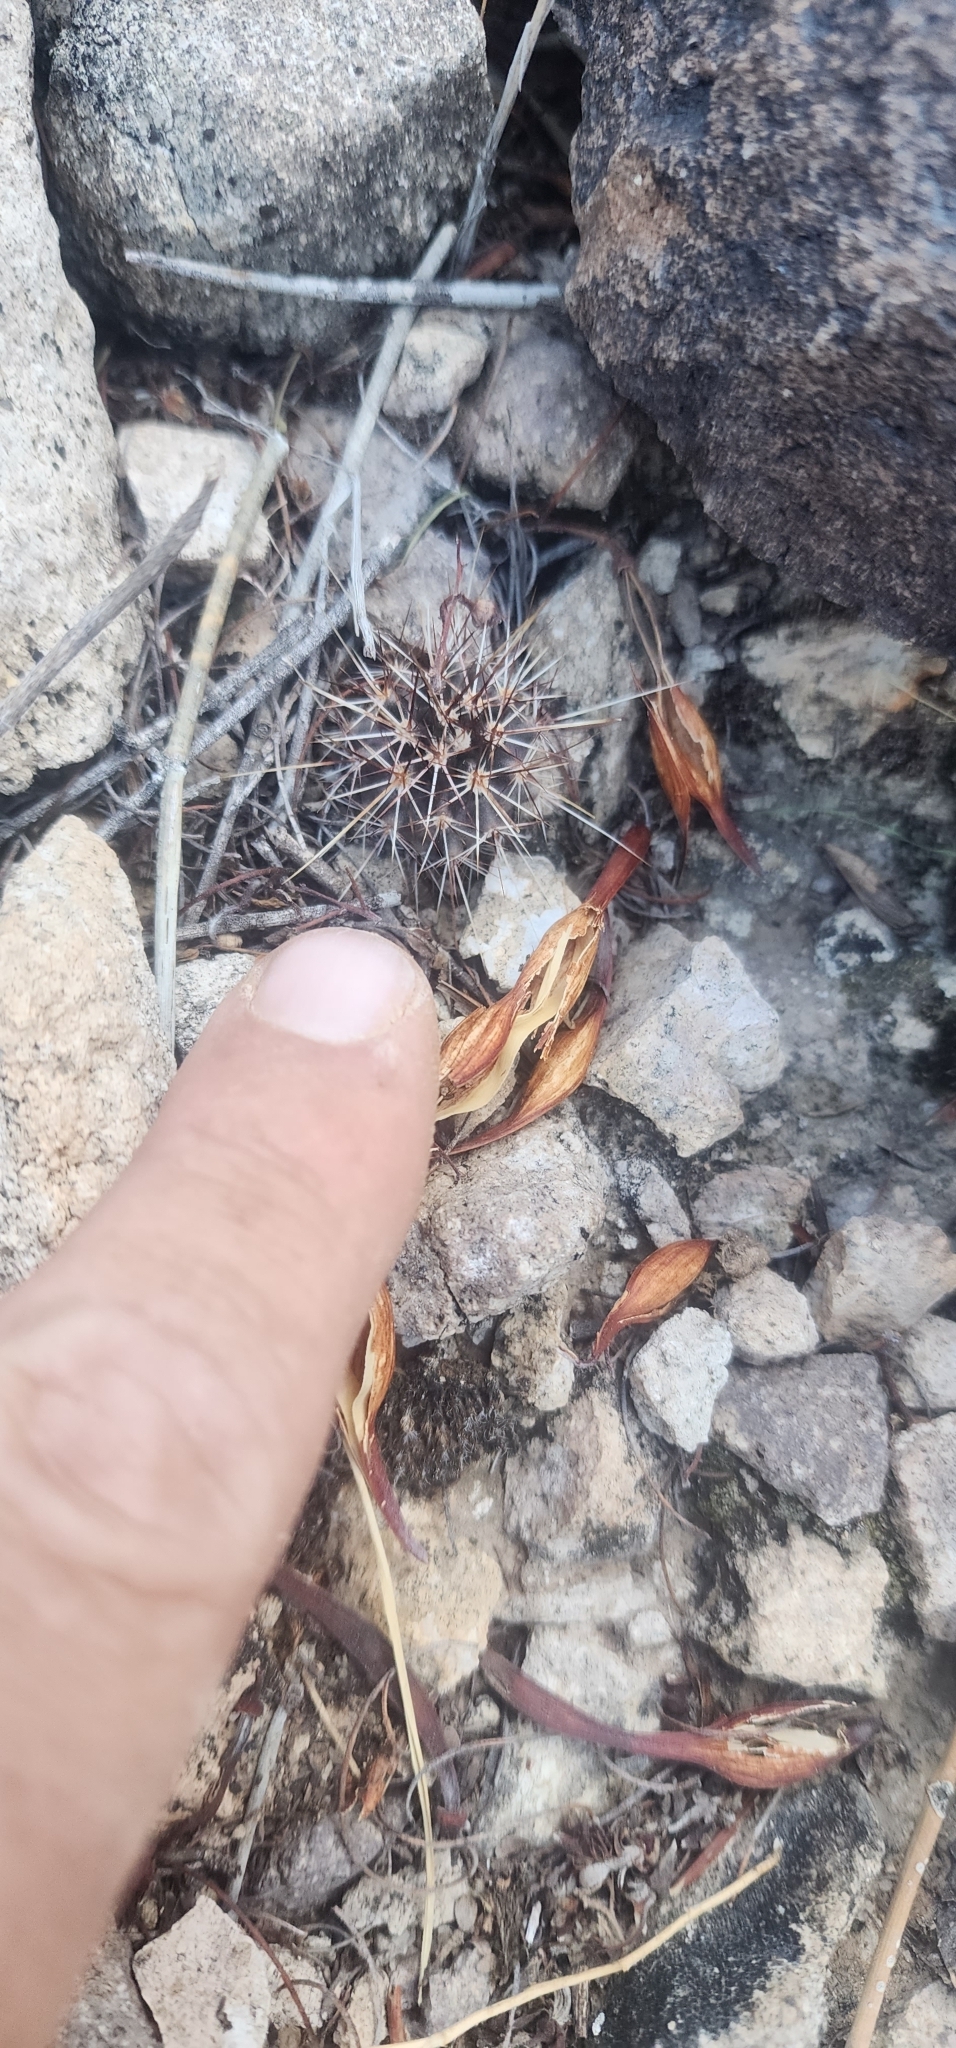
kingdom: Plantae
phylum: Tracheophyta
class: Magnoliopsida
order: Caryophyllales
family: Cactaceae
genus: Carnegiea
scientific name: Carnegiea gigantea
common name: Saguaro
